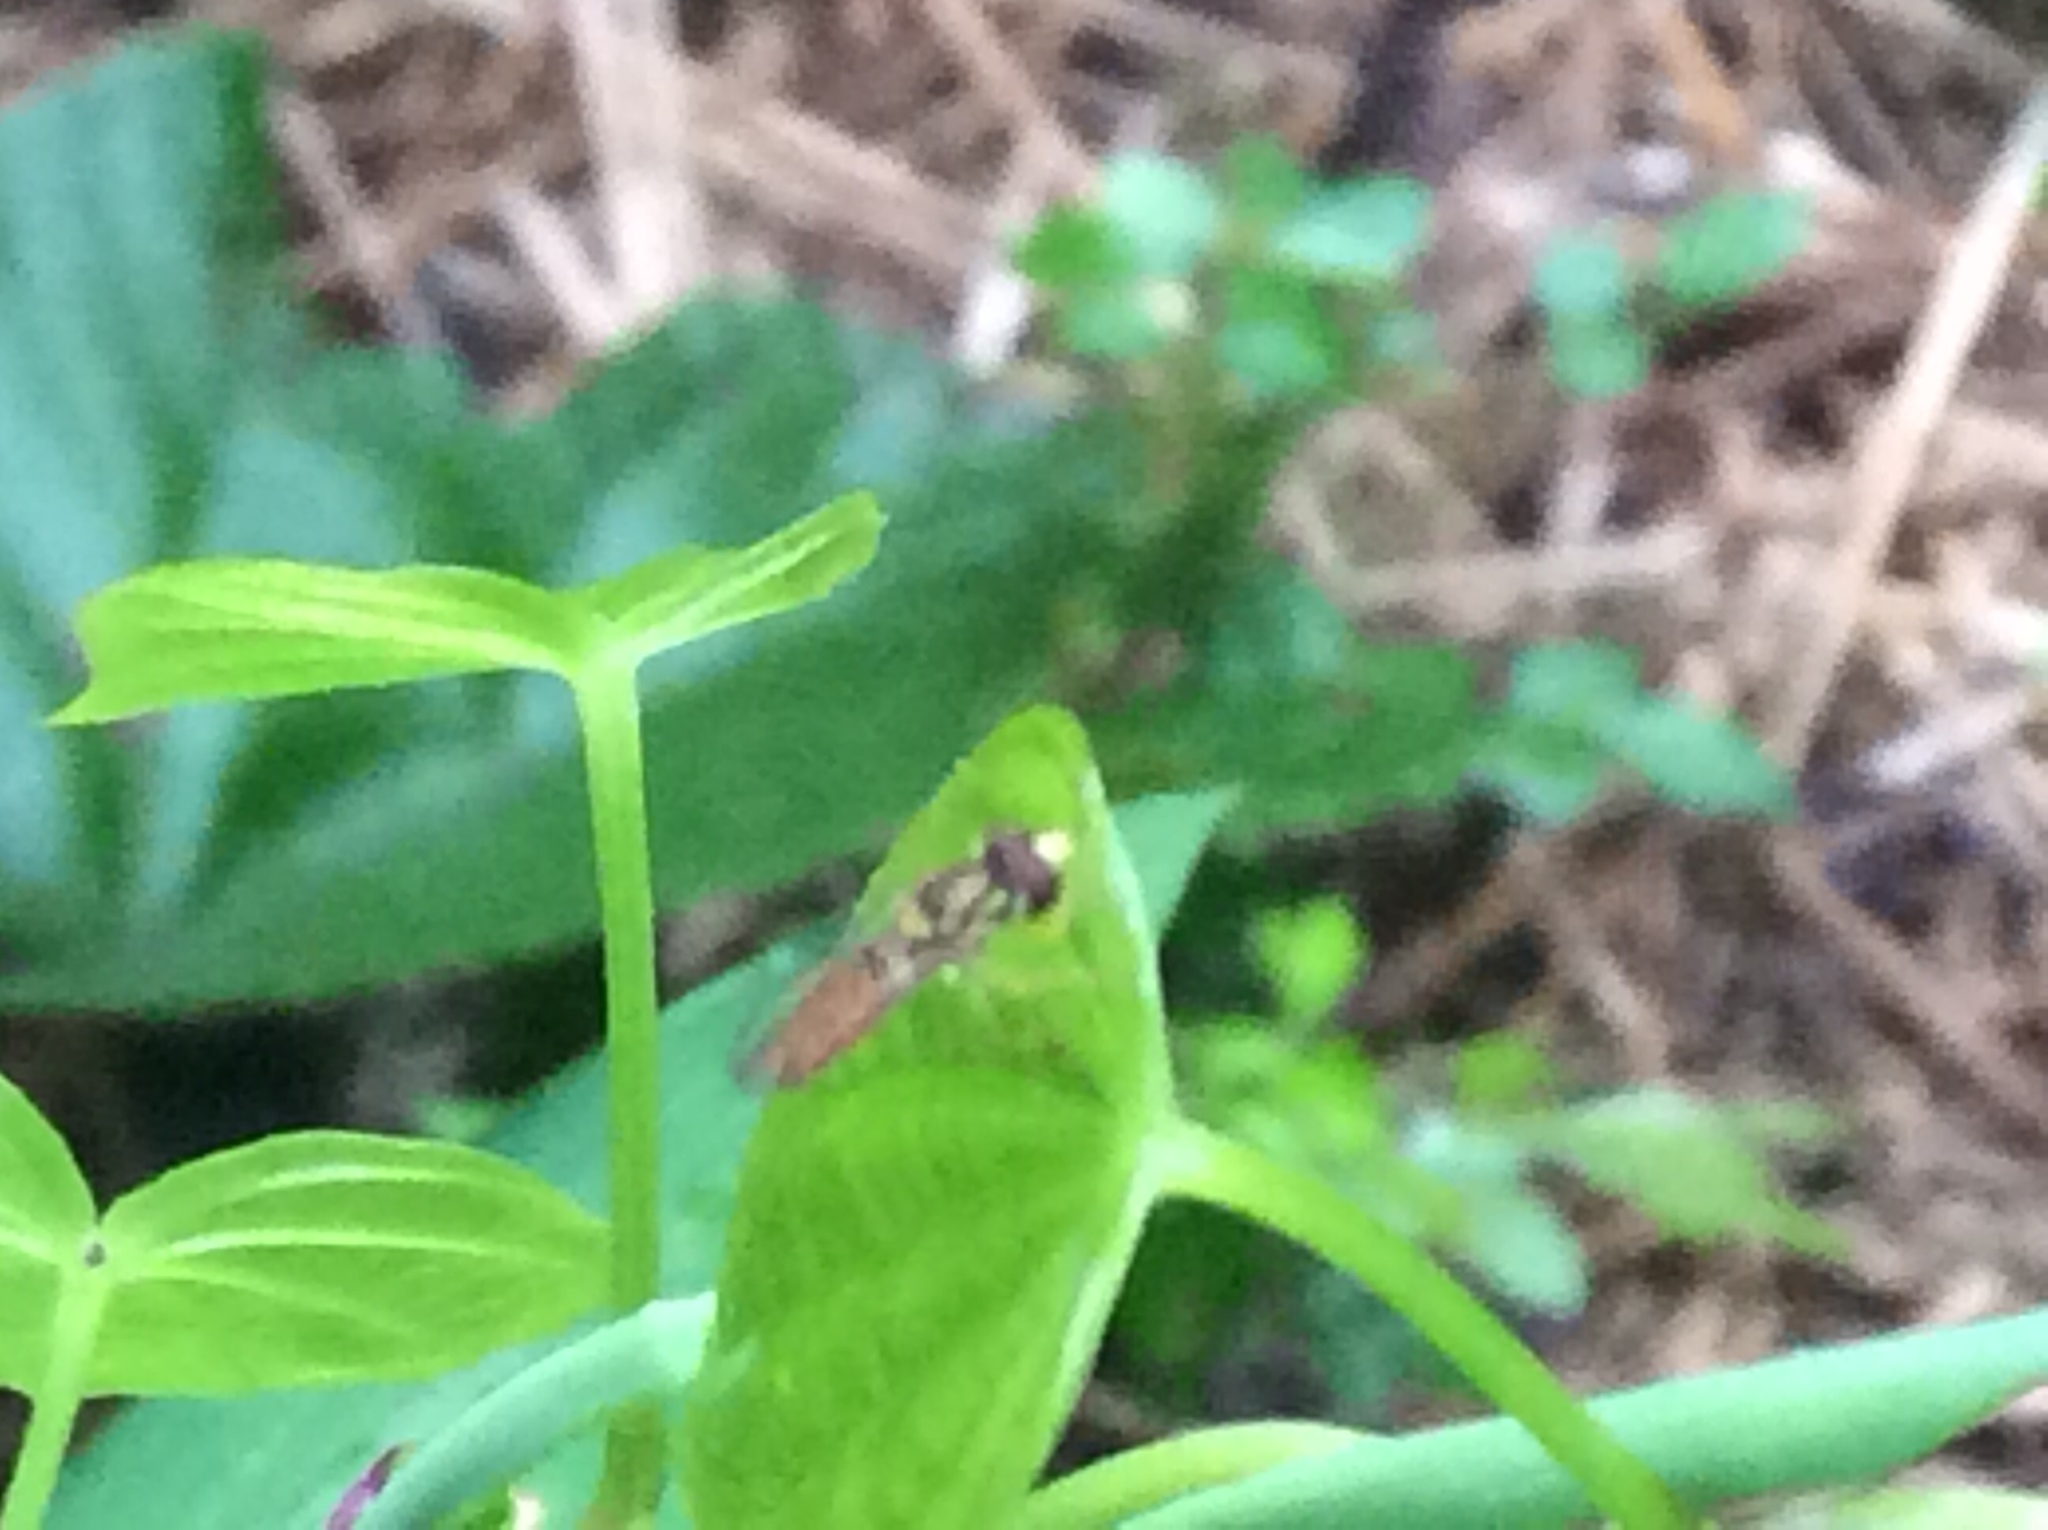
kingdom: Animalia
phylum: Arthropoda
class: Insecta
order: Diptera
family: Syrphidae
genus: Toxomerus
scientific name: Toxomerus marginatus
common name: Syrphid fly
